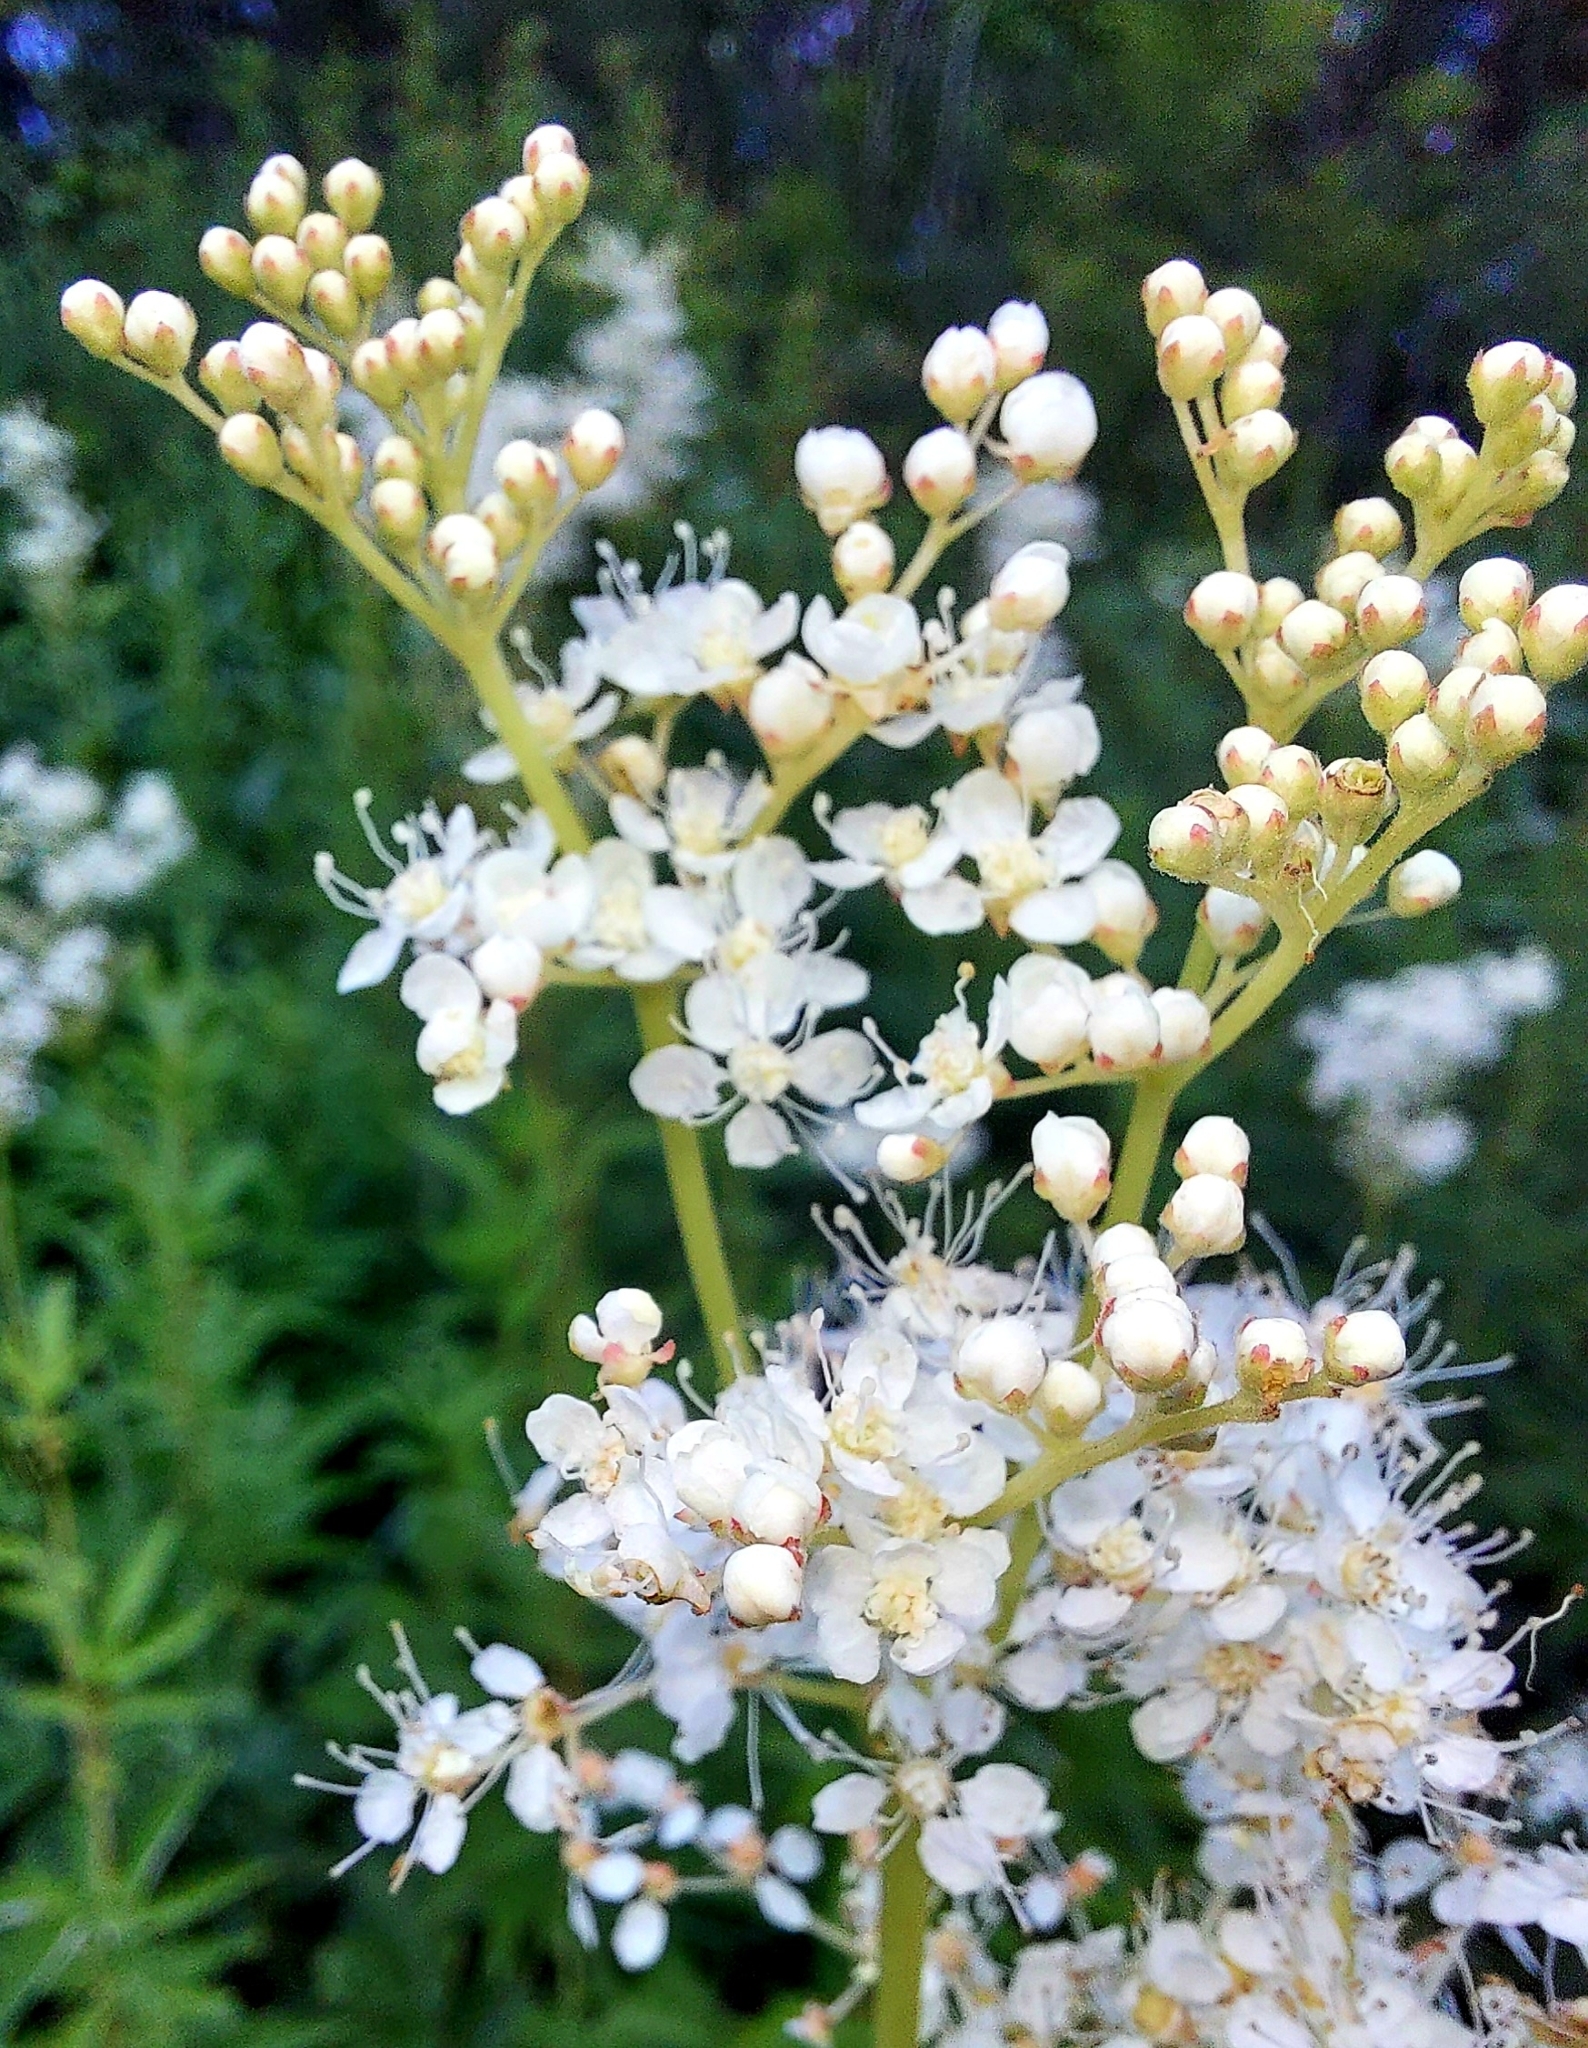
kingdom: Plantae
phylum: Tracheophyta
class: Magnoliopsida
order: Rosales
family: Rosaceae
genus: Filipendula
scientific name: Filipendula ulmaria
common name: Meadowsweet
